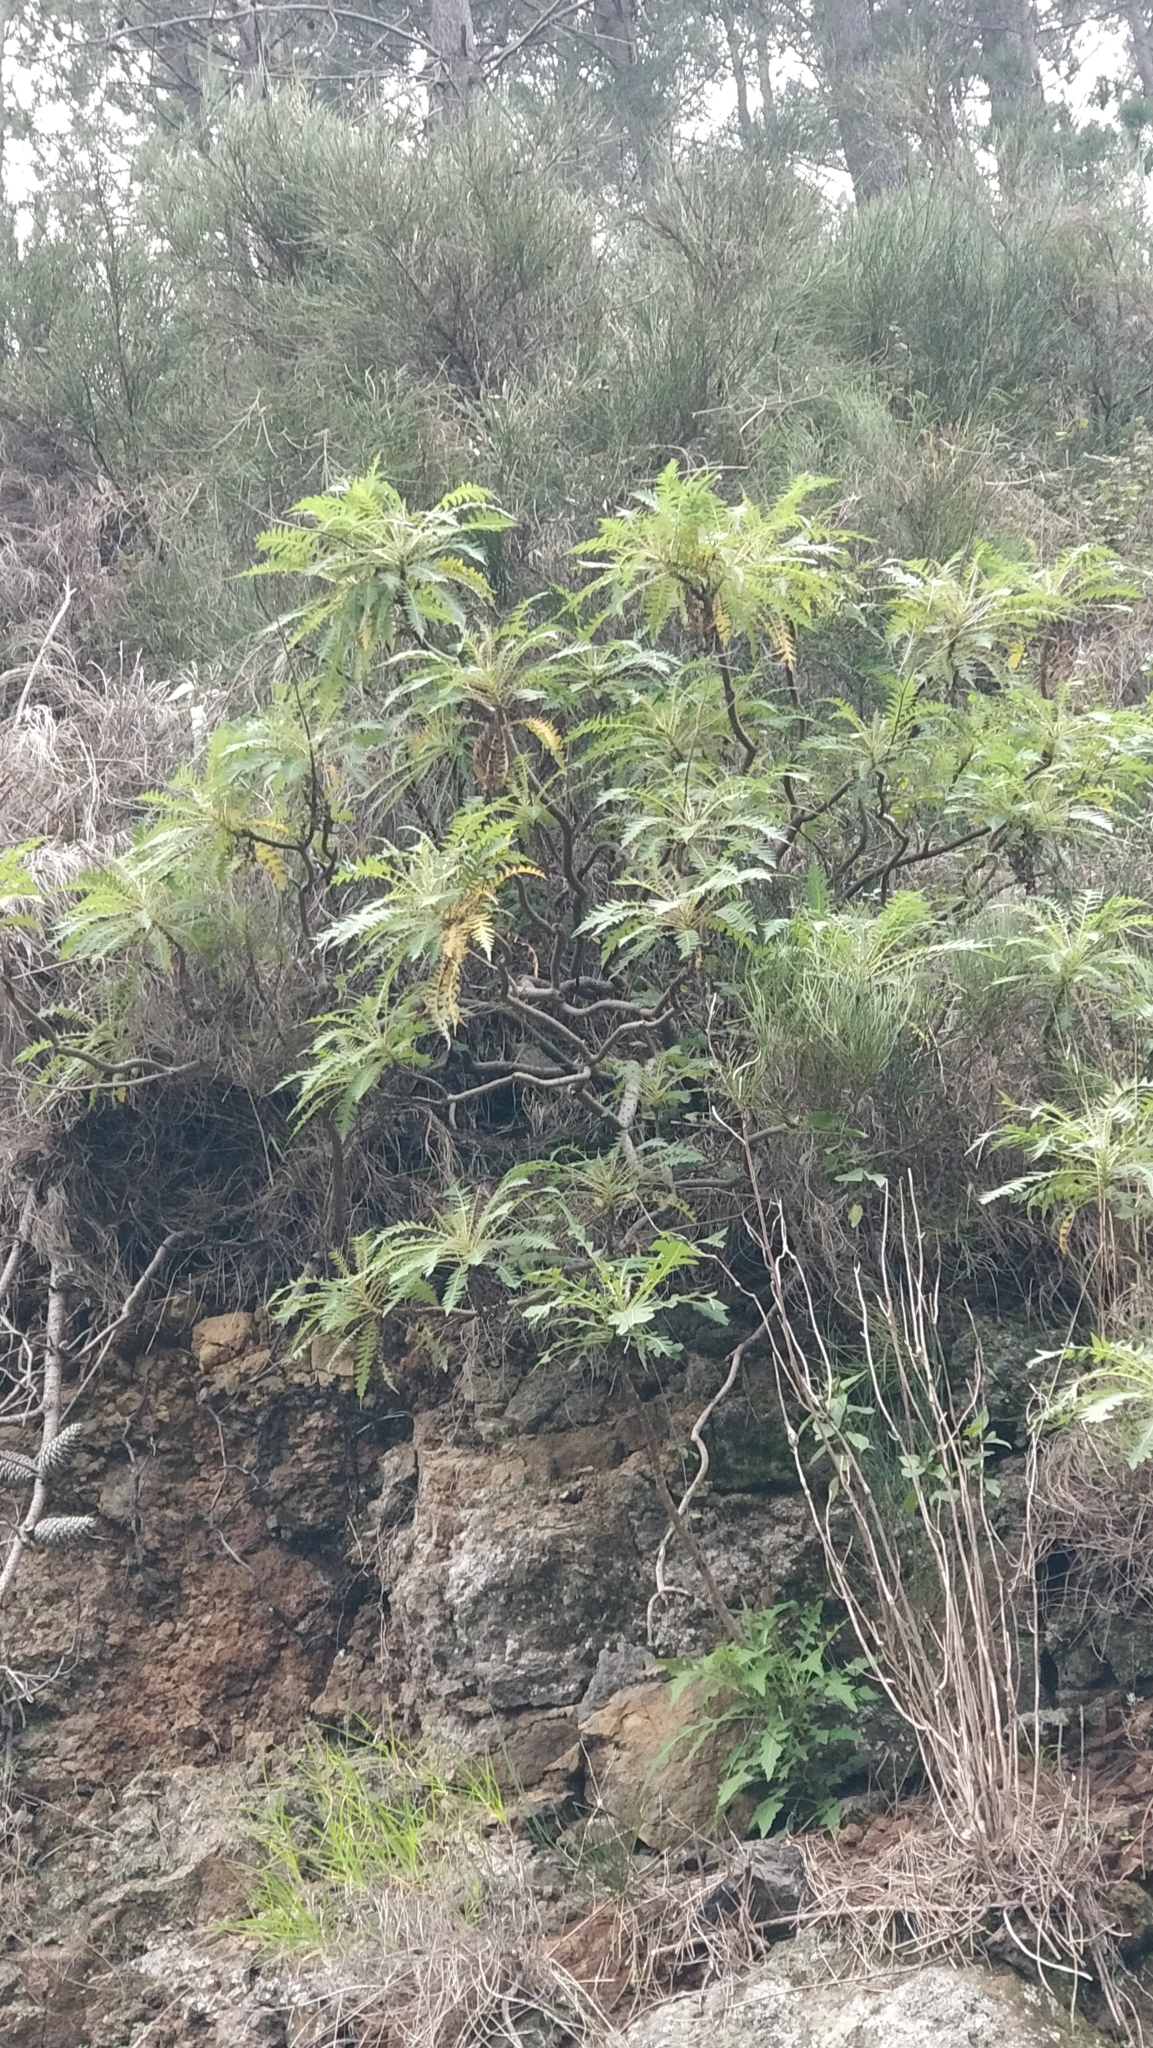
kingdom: Plantae
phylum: Tracheophyta
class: Magnoliopsida
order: Asterales
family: Asteraceae
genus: Sonchus
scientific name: Sonchus pinnatus
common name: Wing-leaved sow-thistle
